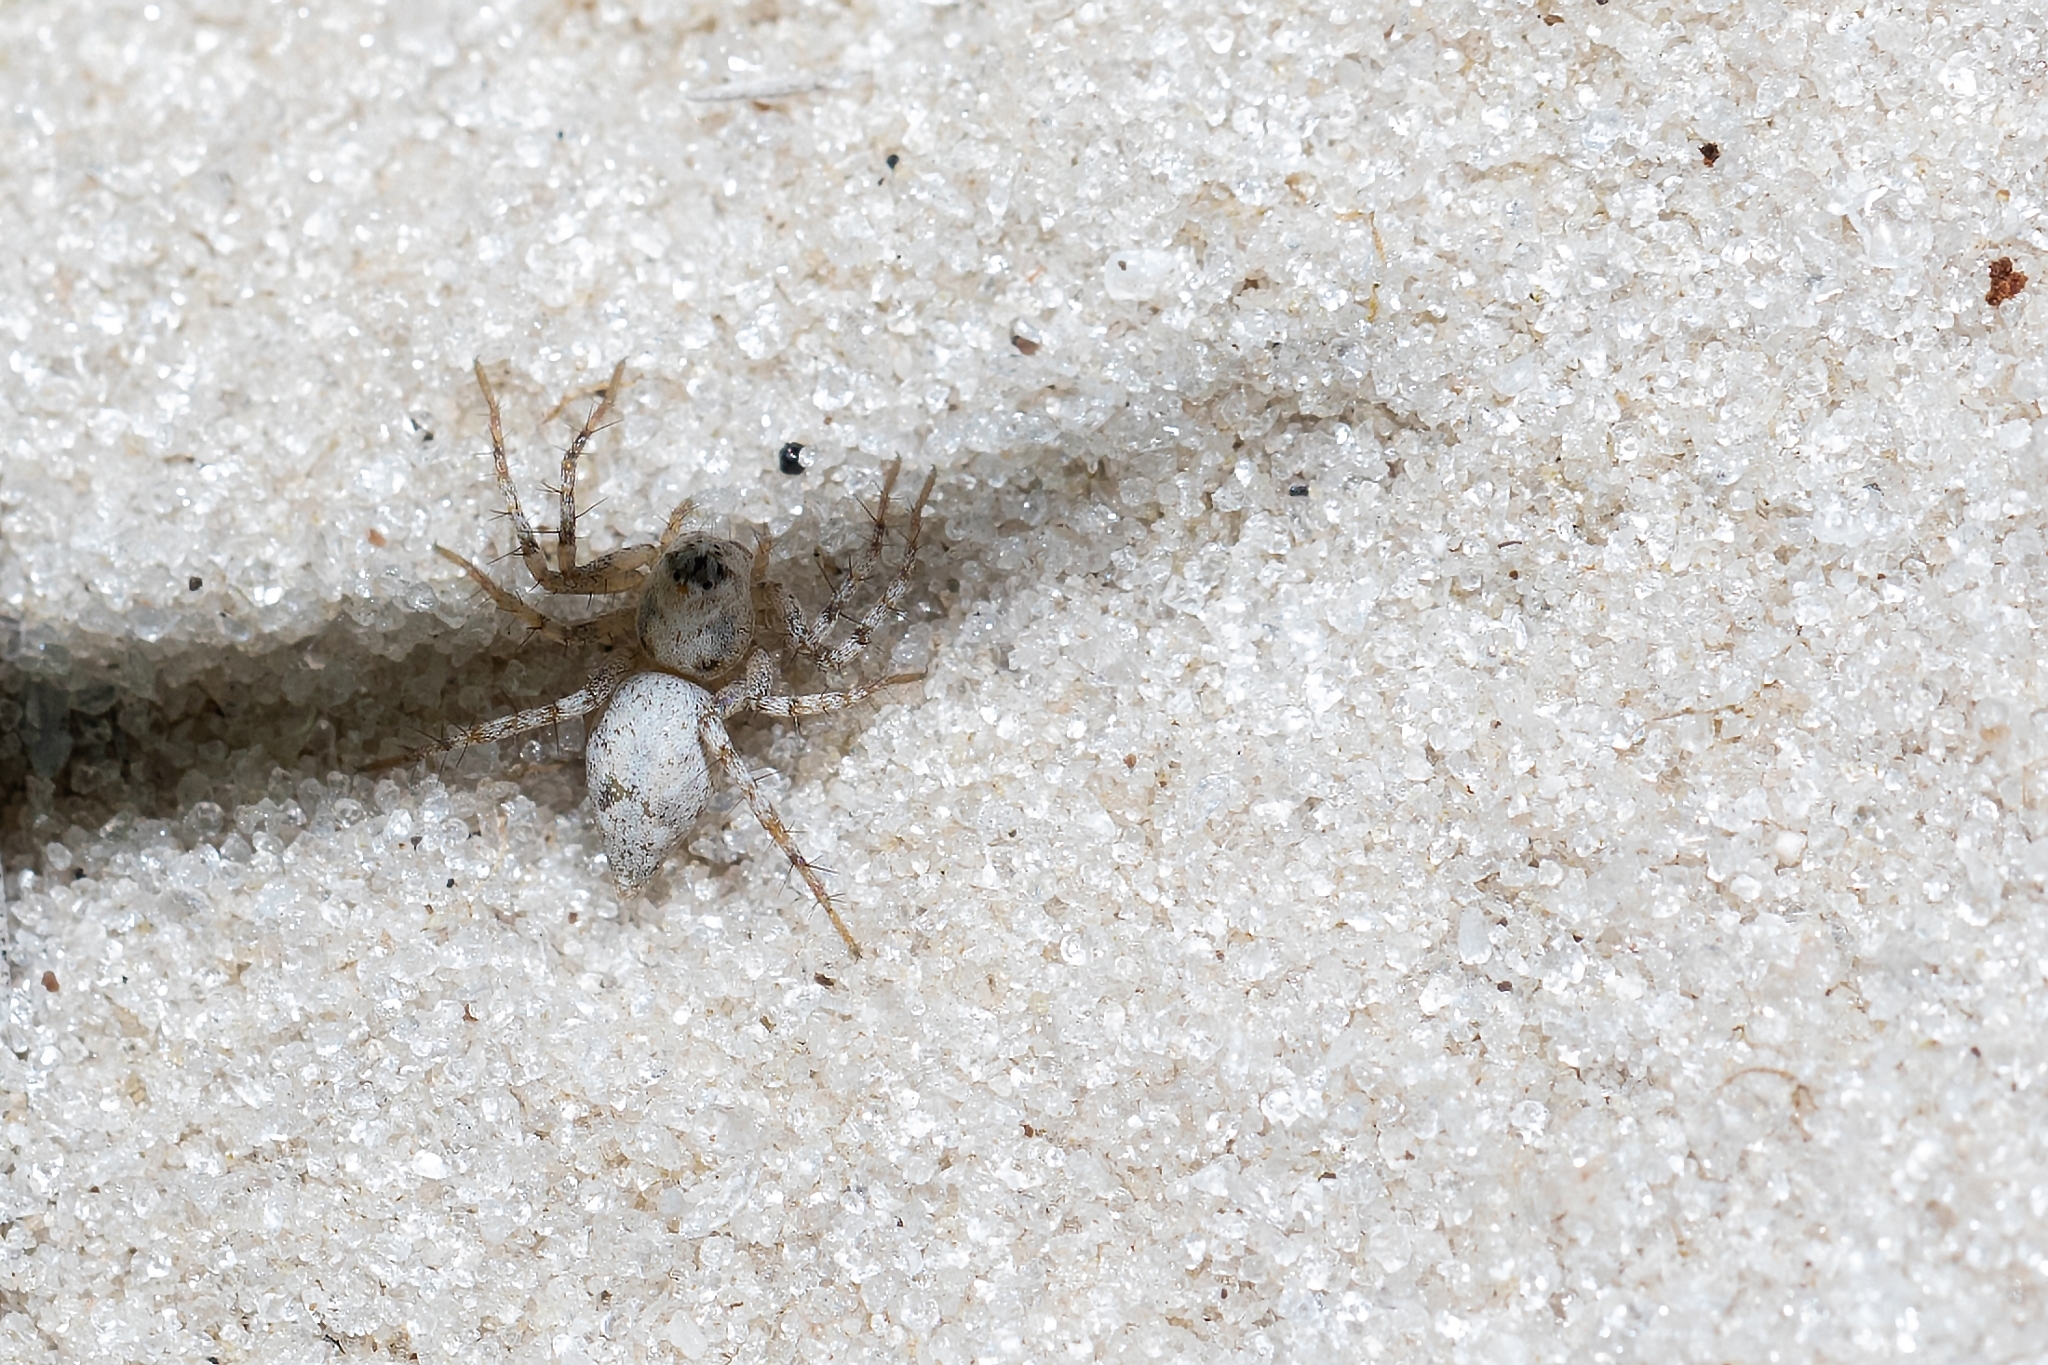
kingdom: Animalia
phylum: Arthropoda
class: Arachnida
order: Araneae
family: Oxyopidae
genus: Oxyopes
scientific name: Oxyopes apollo
